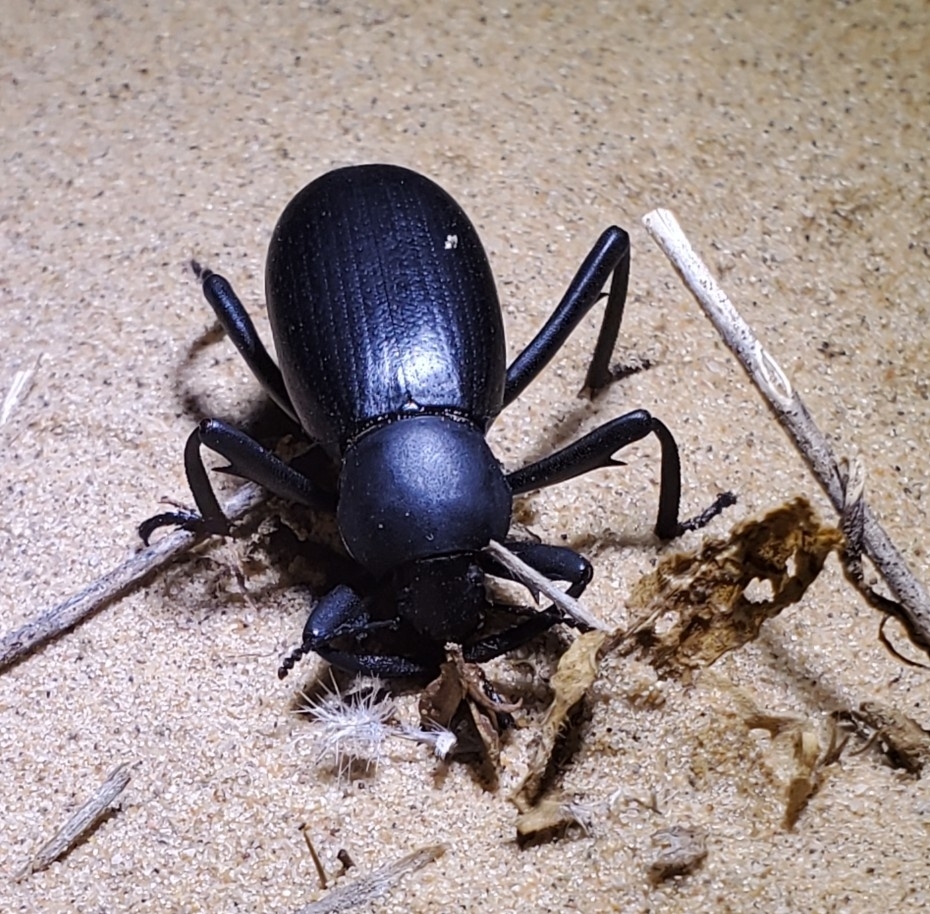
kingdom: Animalia
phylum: Arthropoda
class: Insecta
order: Coleoptera
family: Tenebrionidae
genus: Eleodes
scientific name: Eleodes armata
